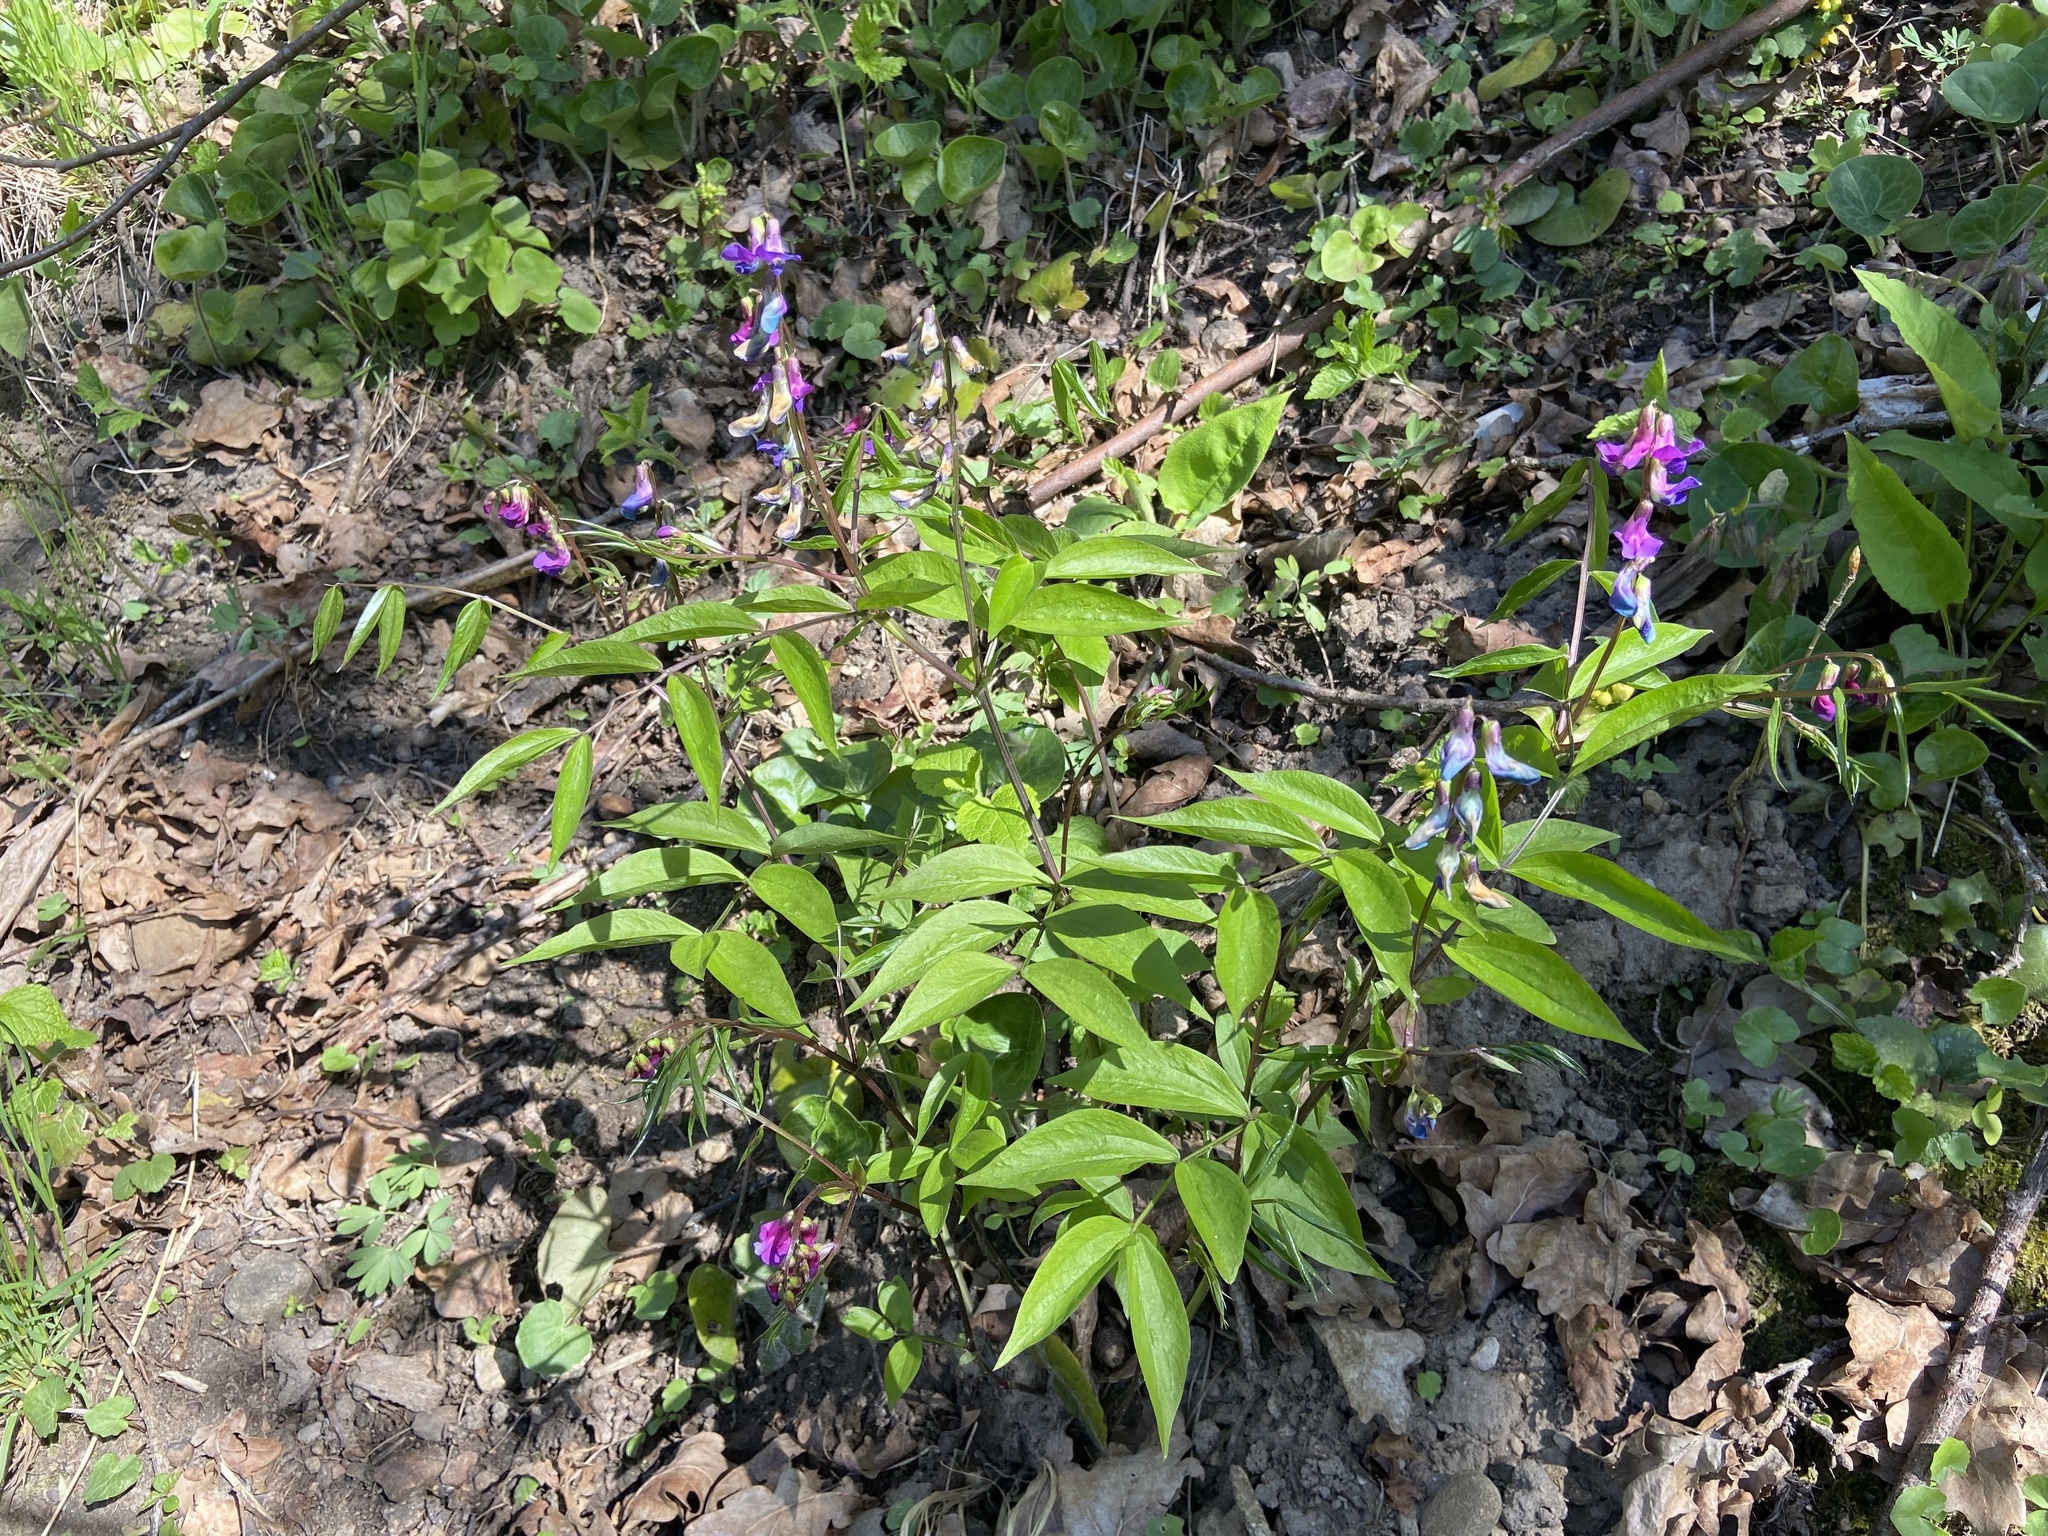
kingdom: Plantae
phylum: Tracheophyta
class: Magnoliopsida
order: Fabales
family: Fabaceae
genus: Lathyrus
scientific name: Lathyrus vernus
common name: Spring pea
